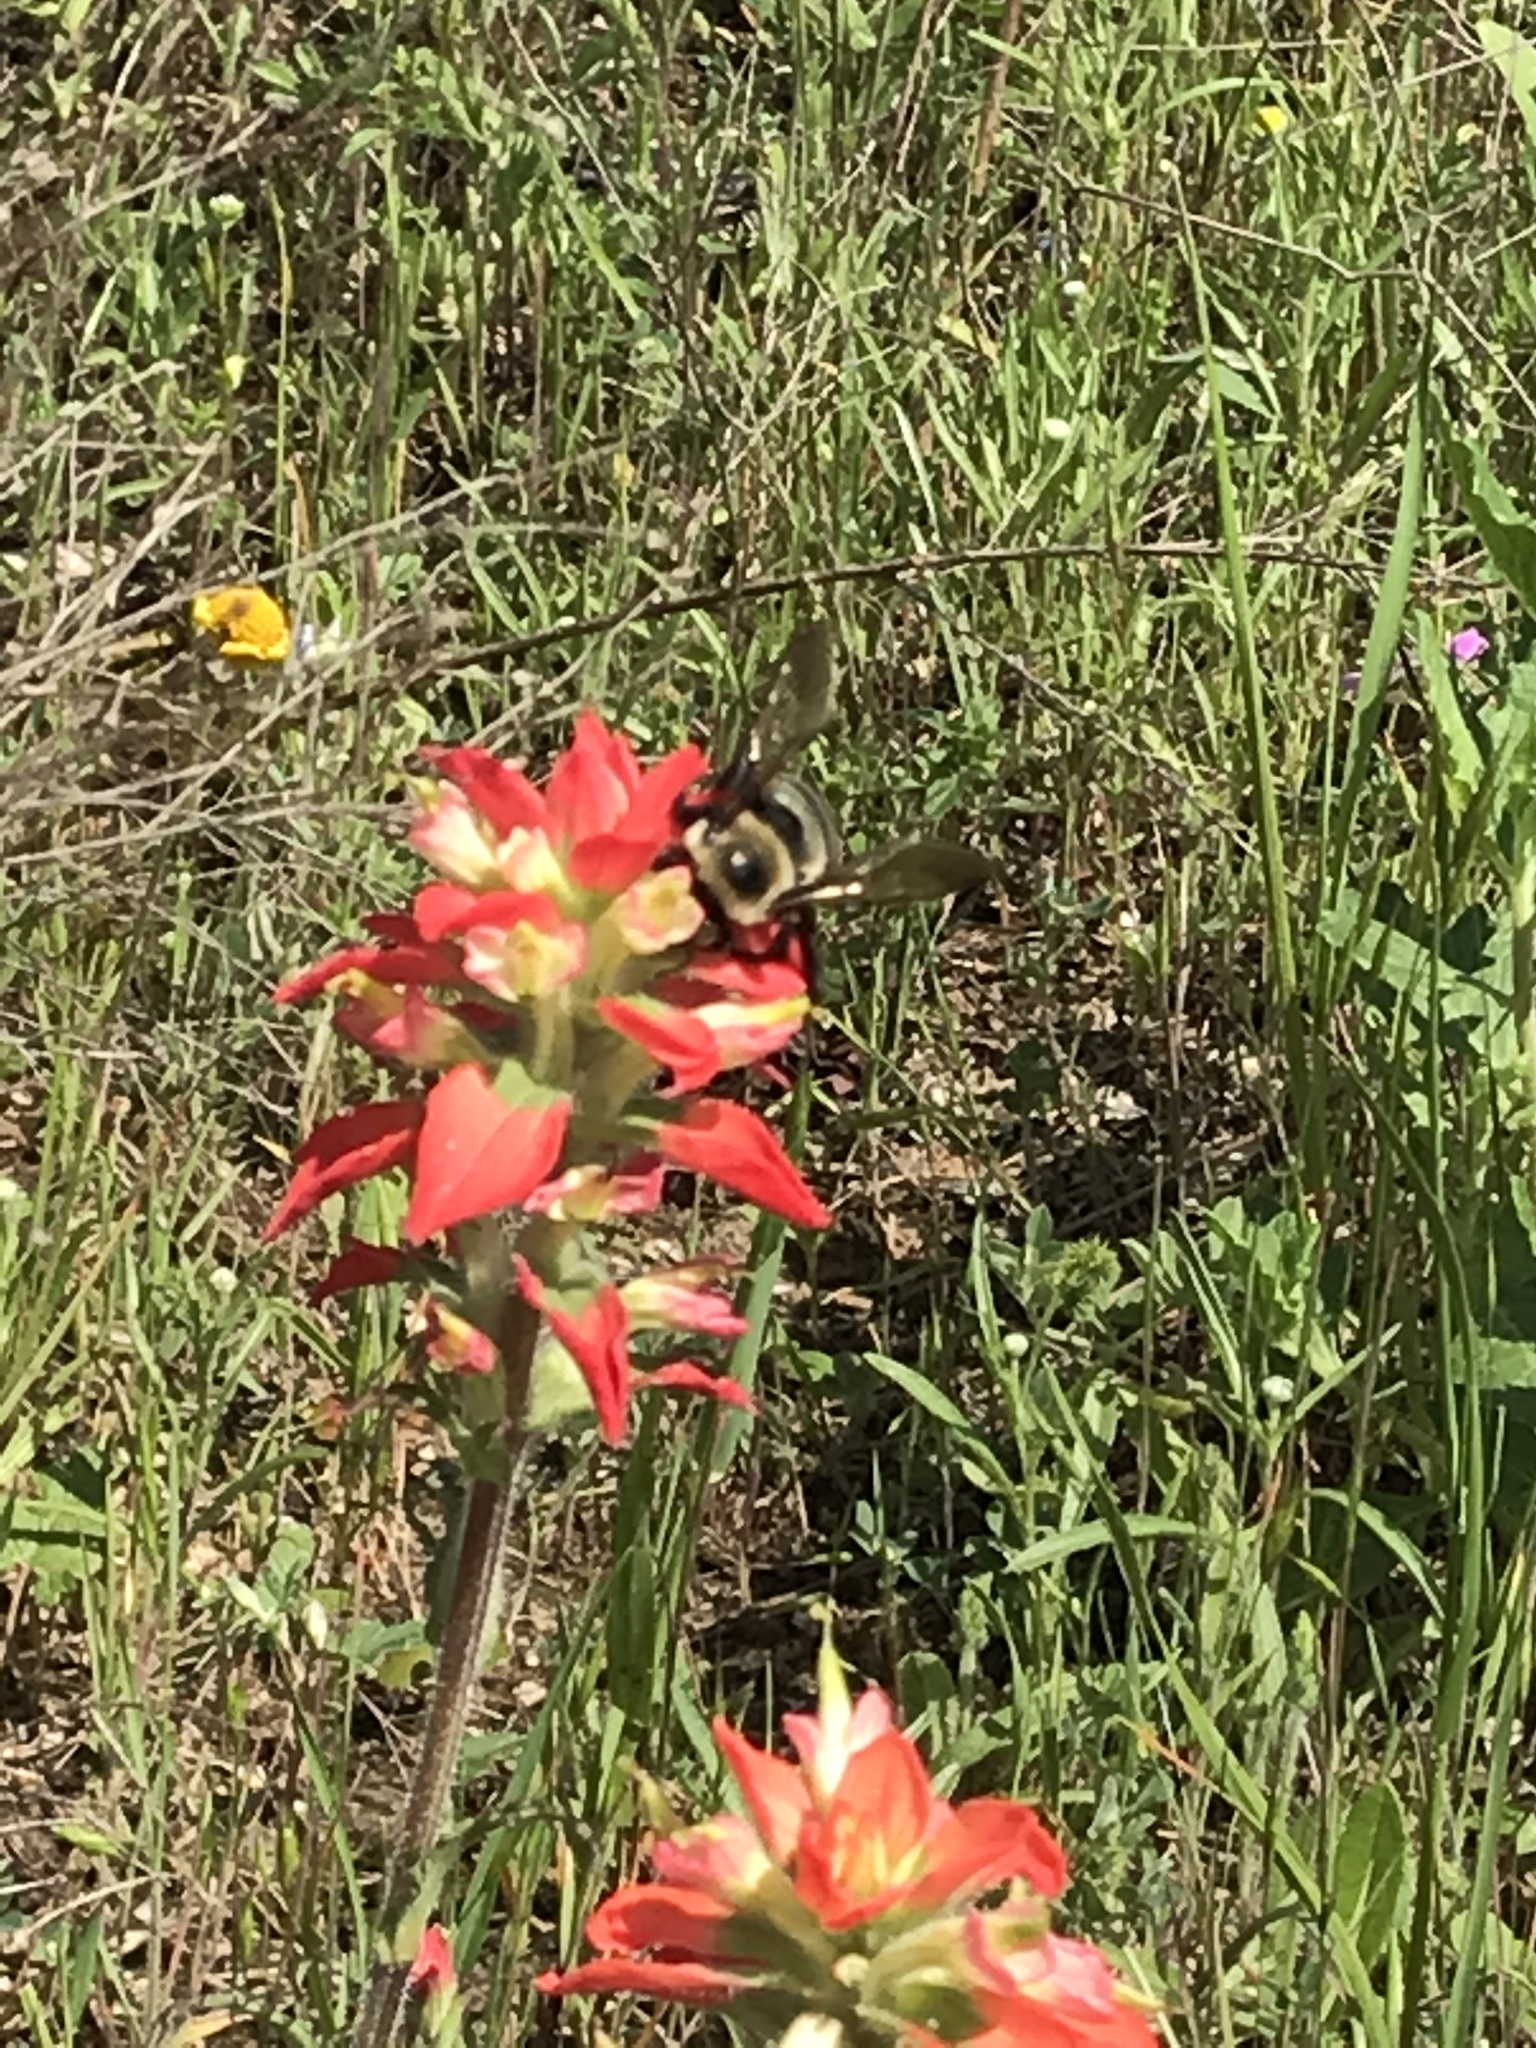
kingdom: Animalia
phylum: Arthropoda
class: Insecta
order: Hymenoptera
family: Apidae
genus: Xylocopa
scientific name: Xylocopa virginica
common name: Carpenter bee
